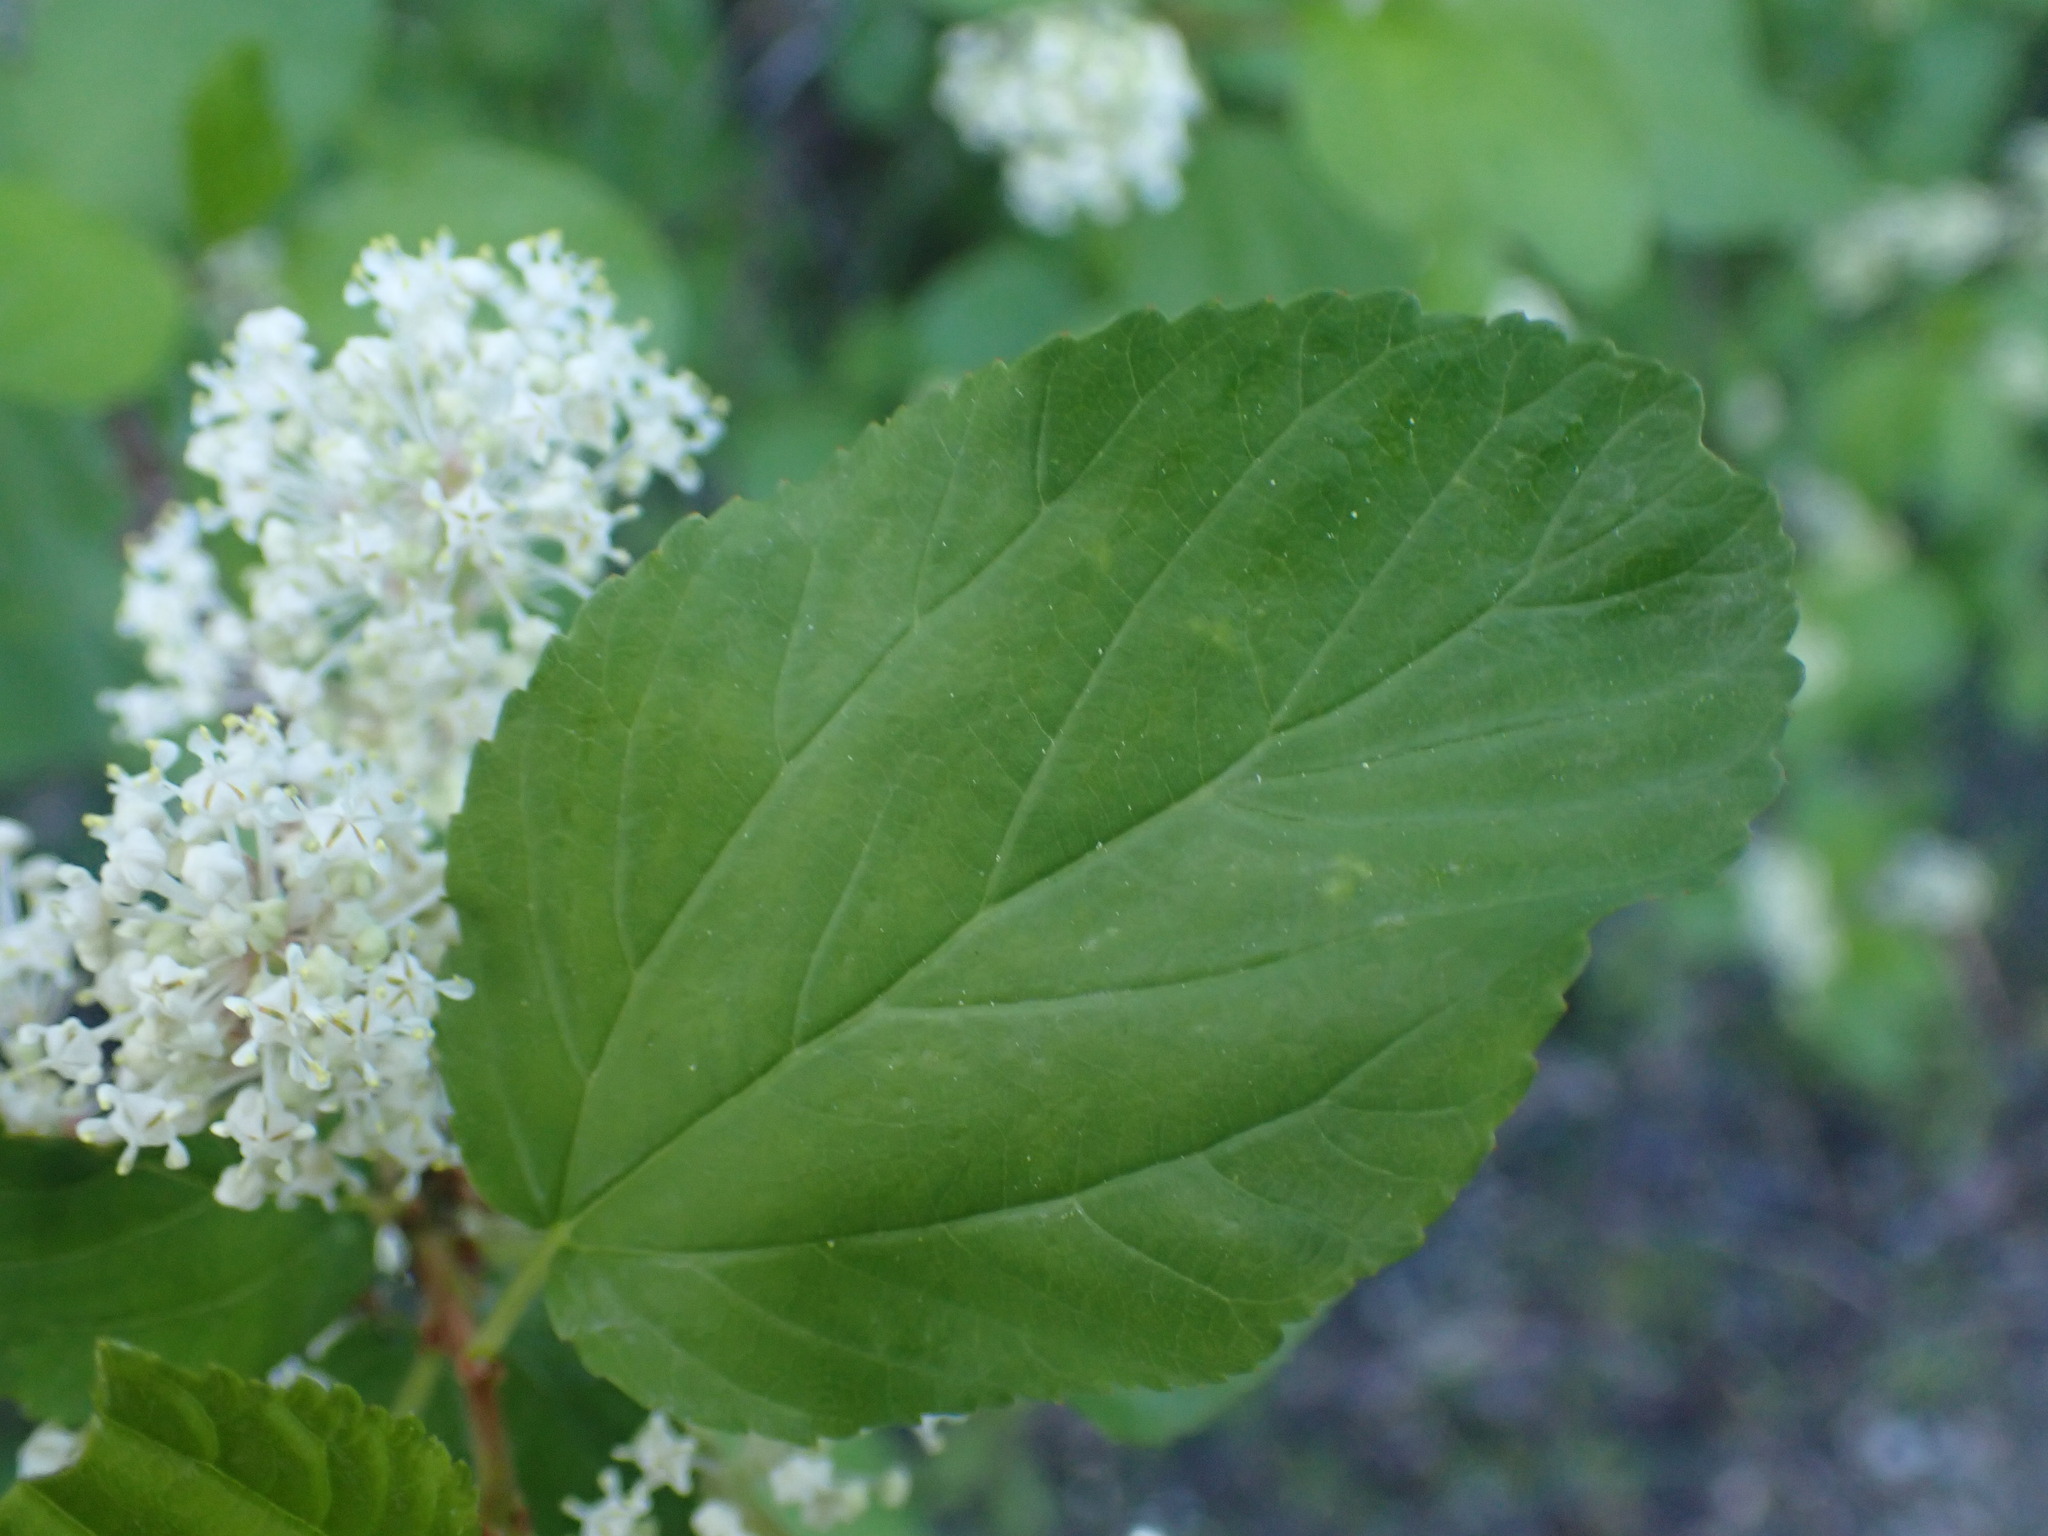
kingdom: Plantae
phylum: Tracheophyta
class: Magnoliopsida
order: Rosales
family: Rhamnaceae
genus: Ceanothus
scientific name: Ceanothus sanguineus
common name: Teatree
